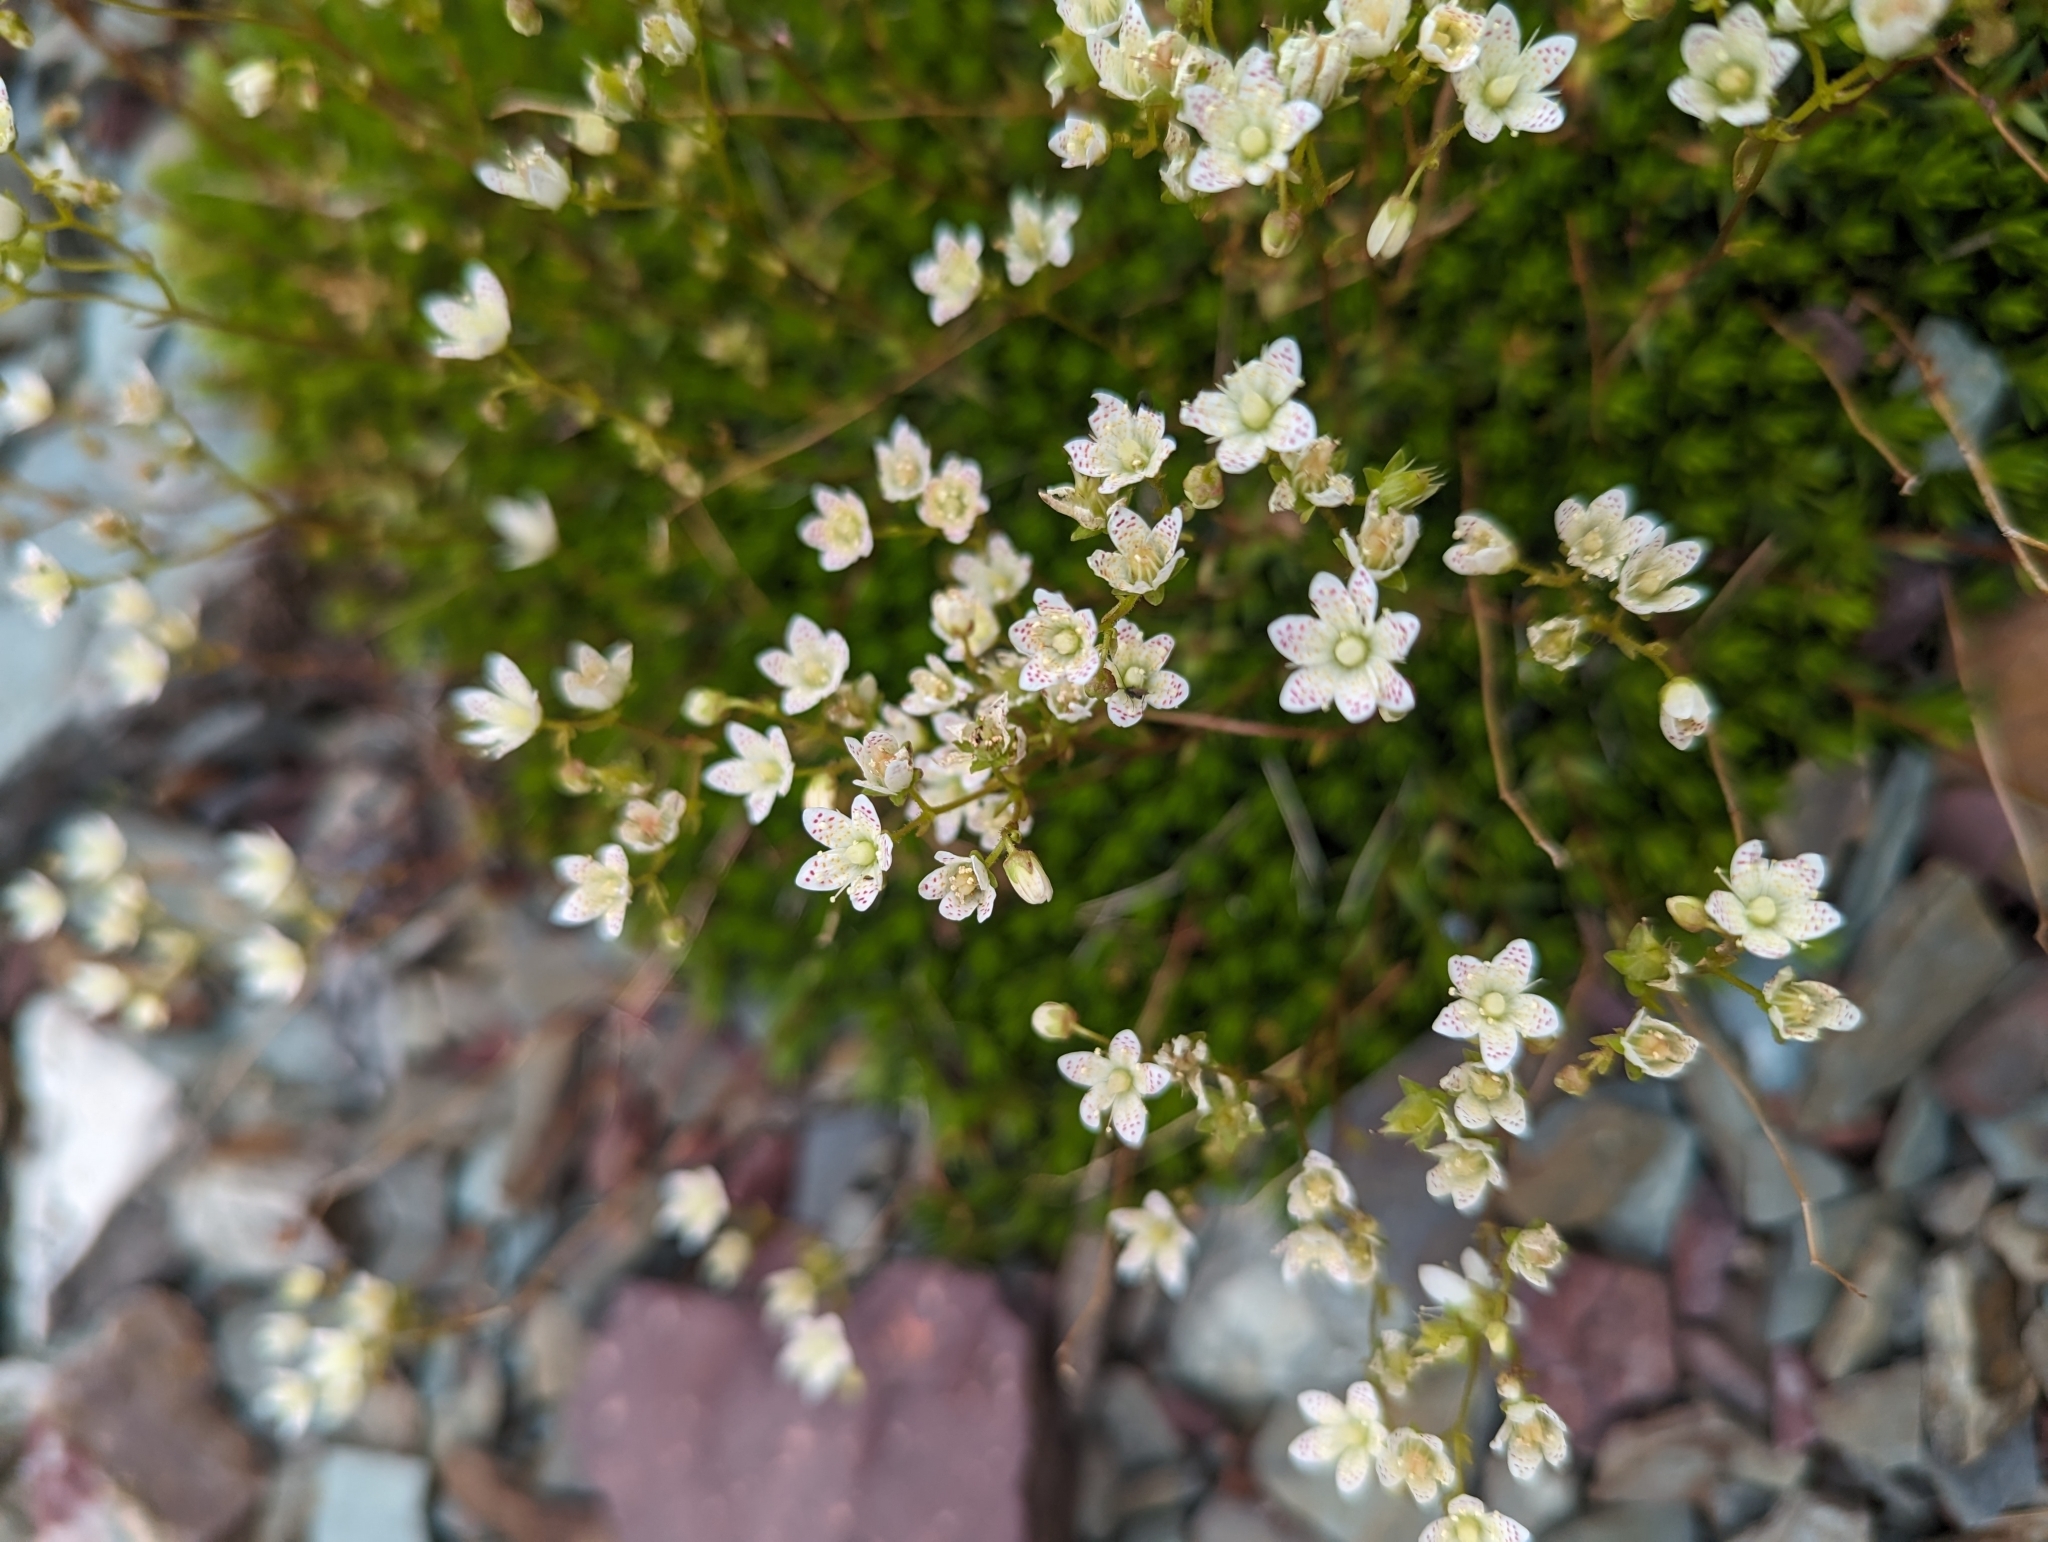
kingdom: Plantae
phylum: Tracheophyta
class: Magnoliopsida
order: Saxifragales
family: Saxifragaceae
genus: Saxifraga
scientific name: Saxifraga bronchialis
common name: Matted saxifrage
